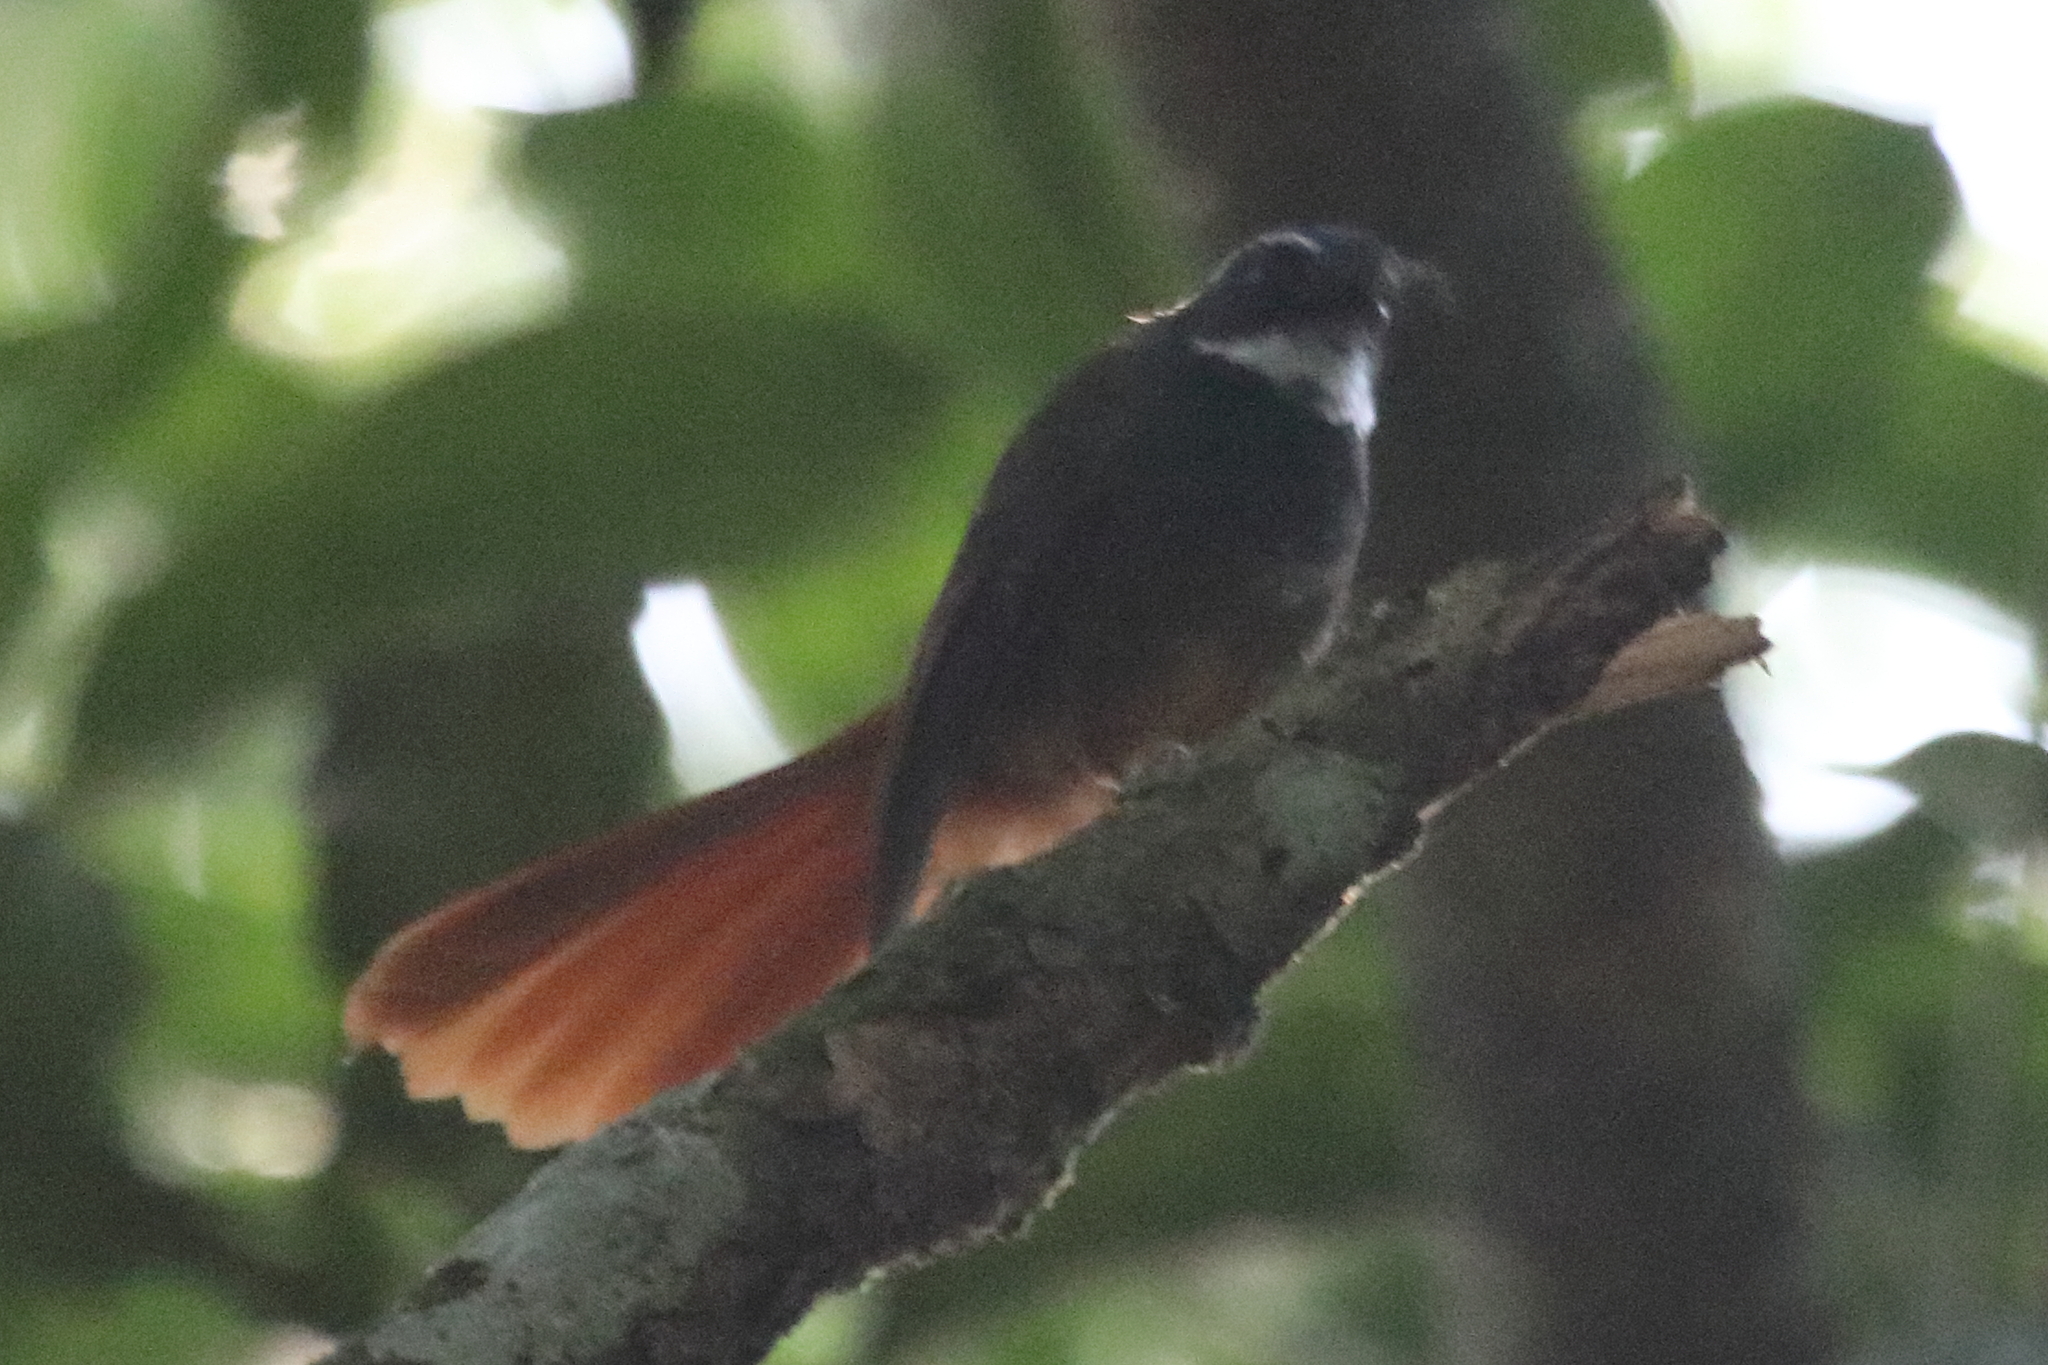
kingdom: Animalia
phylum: Chordata
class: Aves
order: Passeriformes
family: Rhipiduridae
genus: Rhipidura
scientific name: Rhipidura phoenicura
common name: Rufous-tailed fantail
